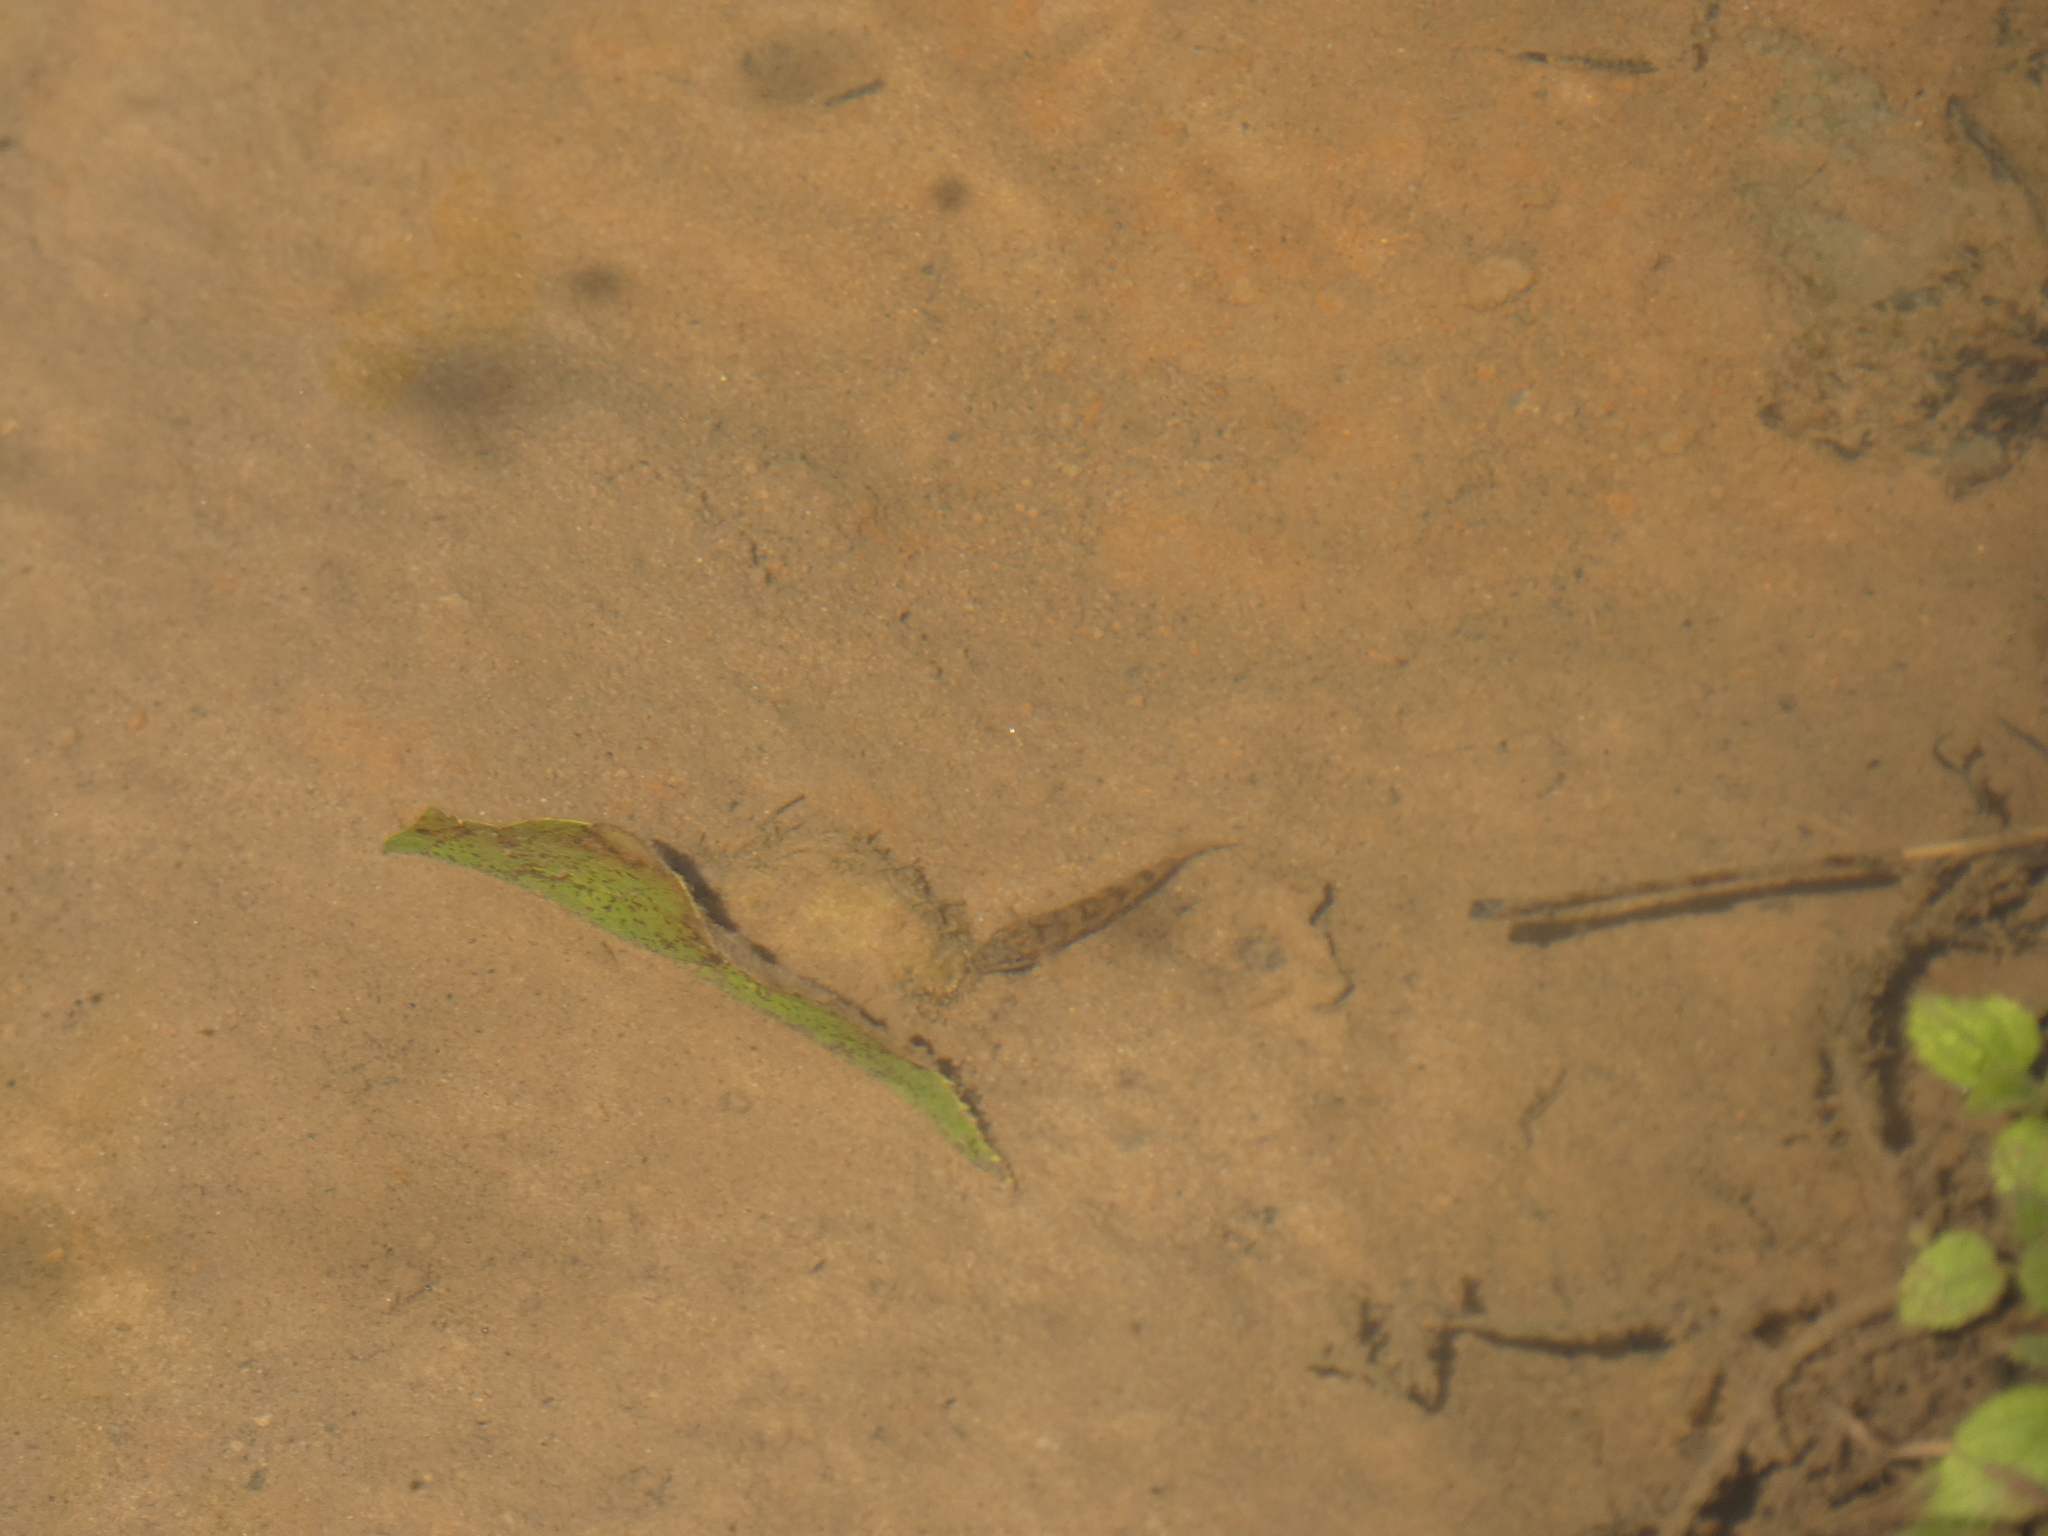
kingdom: Animalia
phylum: Chordata
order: Cypriniformes
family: Catostomidae
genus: Hypentelium
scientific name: Hypentelium nigricans
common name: Northern hog sucker
